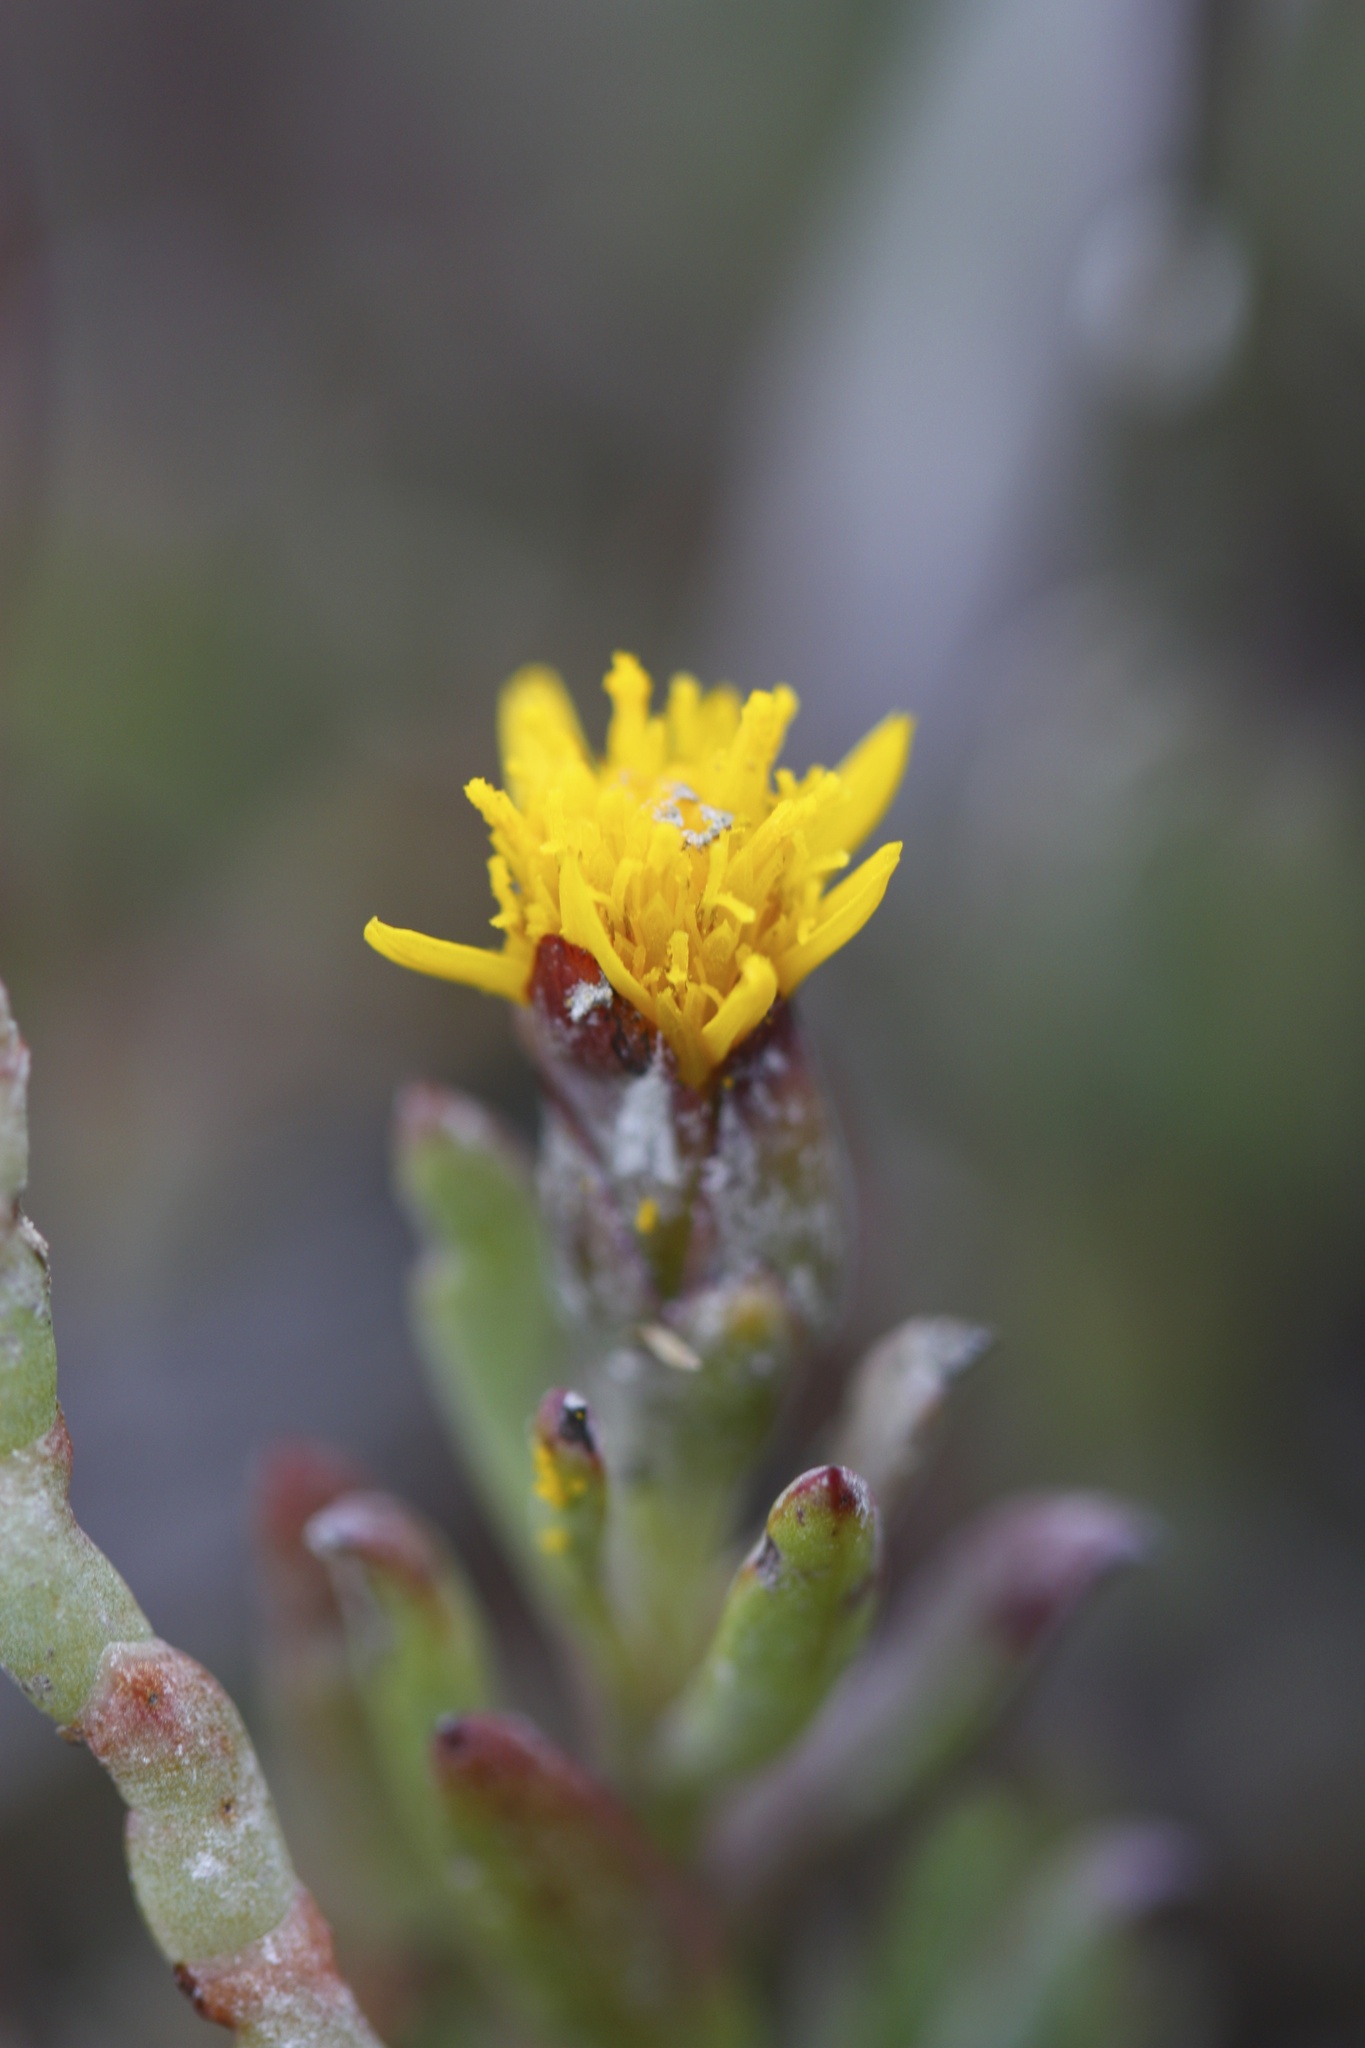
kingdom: Plantae
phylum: Tracheophyta
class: Magnoliopsida
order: Asterales
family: Asteraceae
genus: Jaumea
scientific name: Jaumea carnosa
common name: Fleshy jaumea
